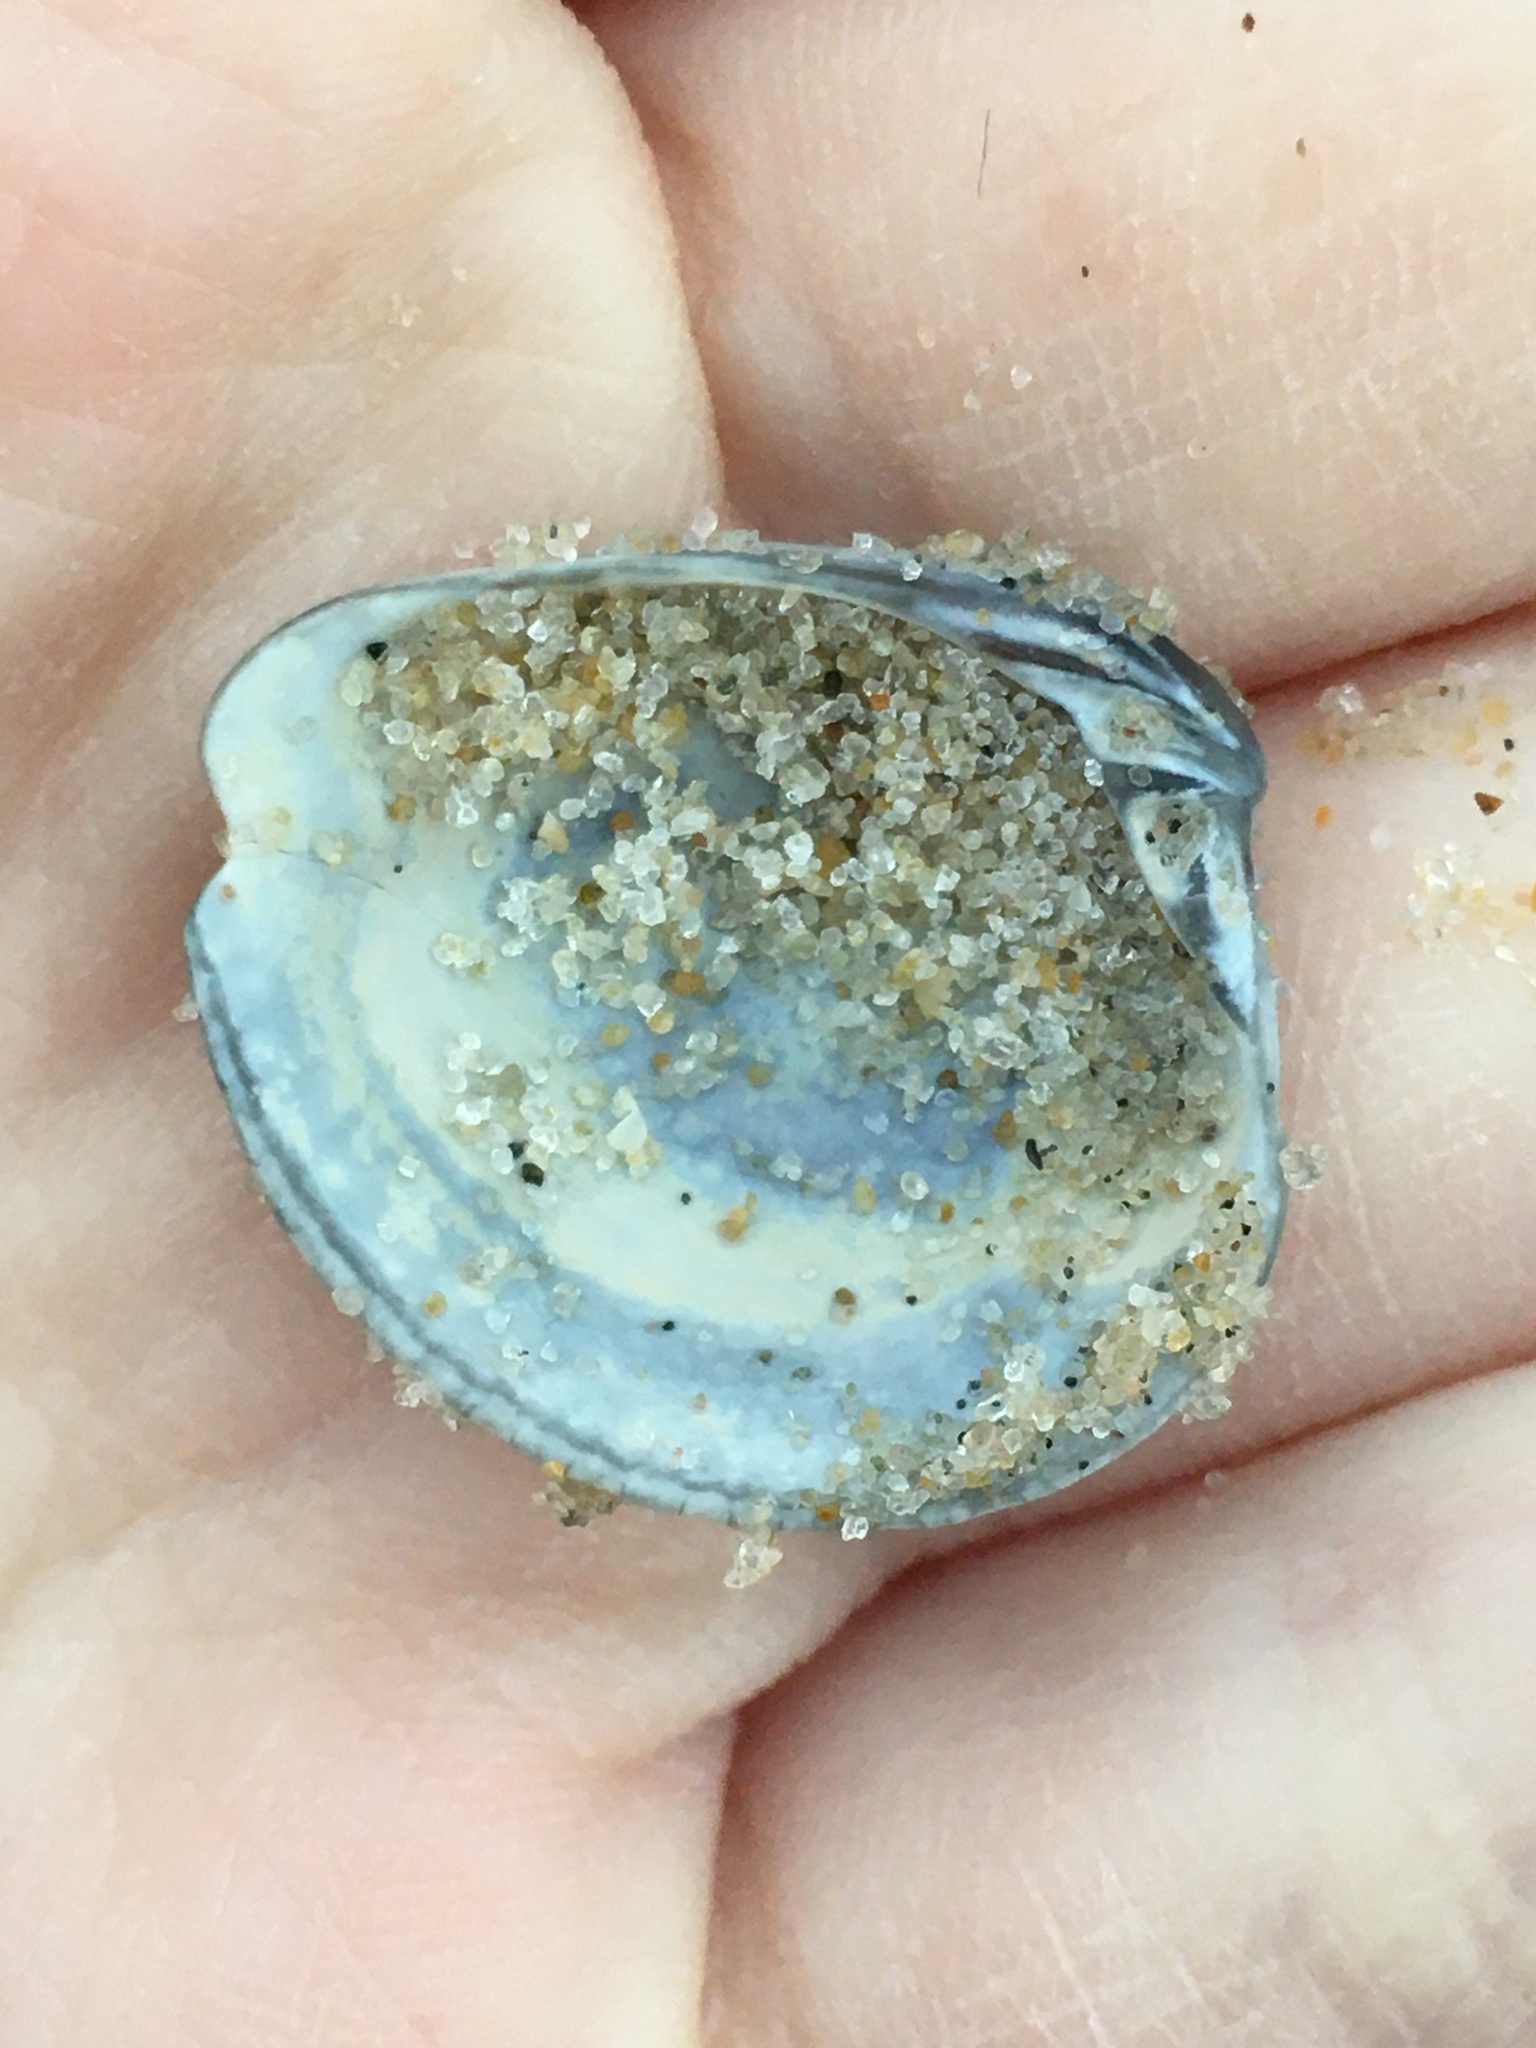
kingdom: Animalia
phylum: Mollusca
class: Bivalvia
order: Venerida
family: Veneridae
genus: Chione
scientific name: Chione elevata
